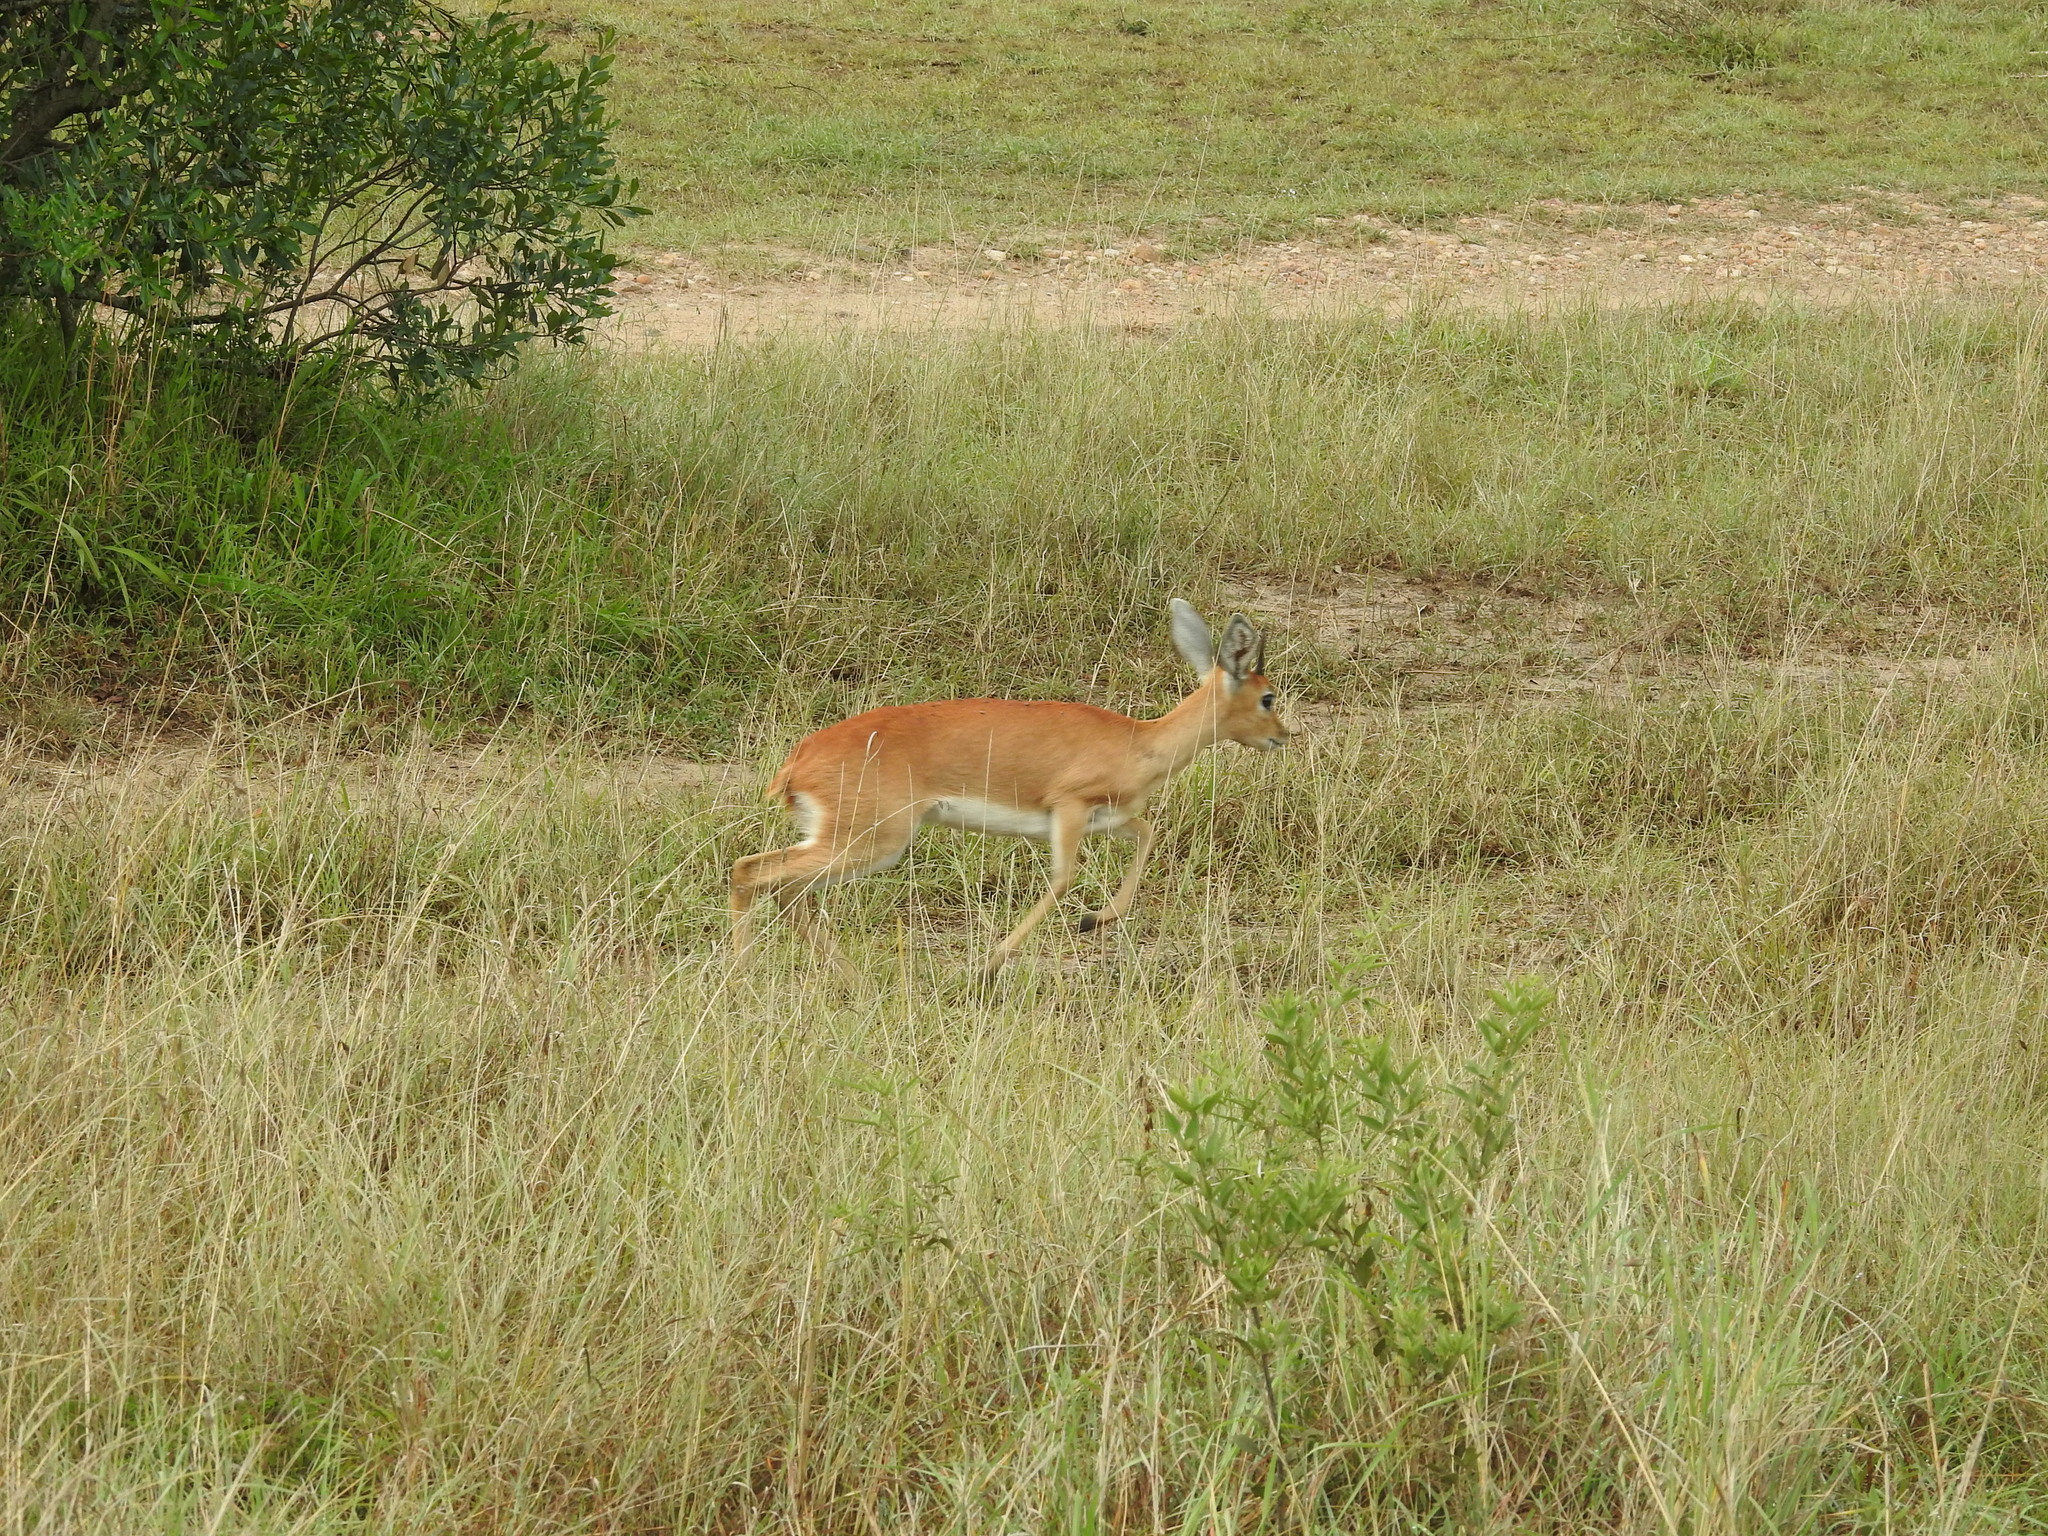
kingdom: Animalia
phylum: Chordata
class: Mammalia
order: Artiodactyla
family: Bovidae
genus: Raphicerus
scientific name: Raphicerus campestris
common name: Steenbok
